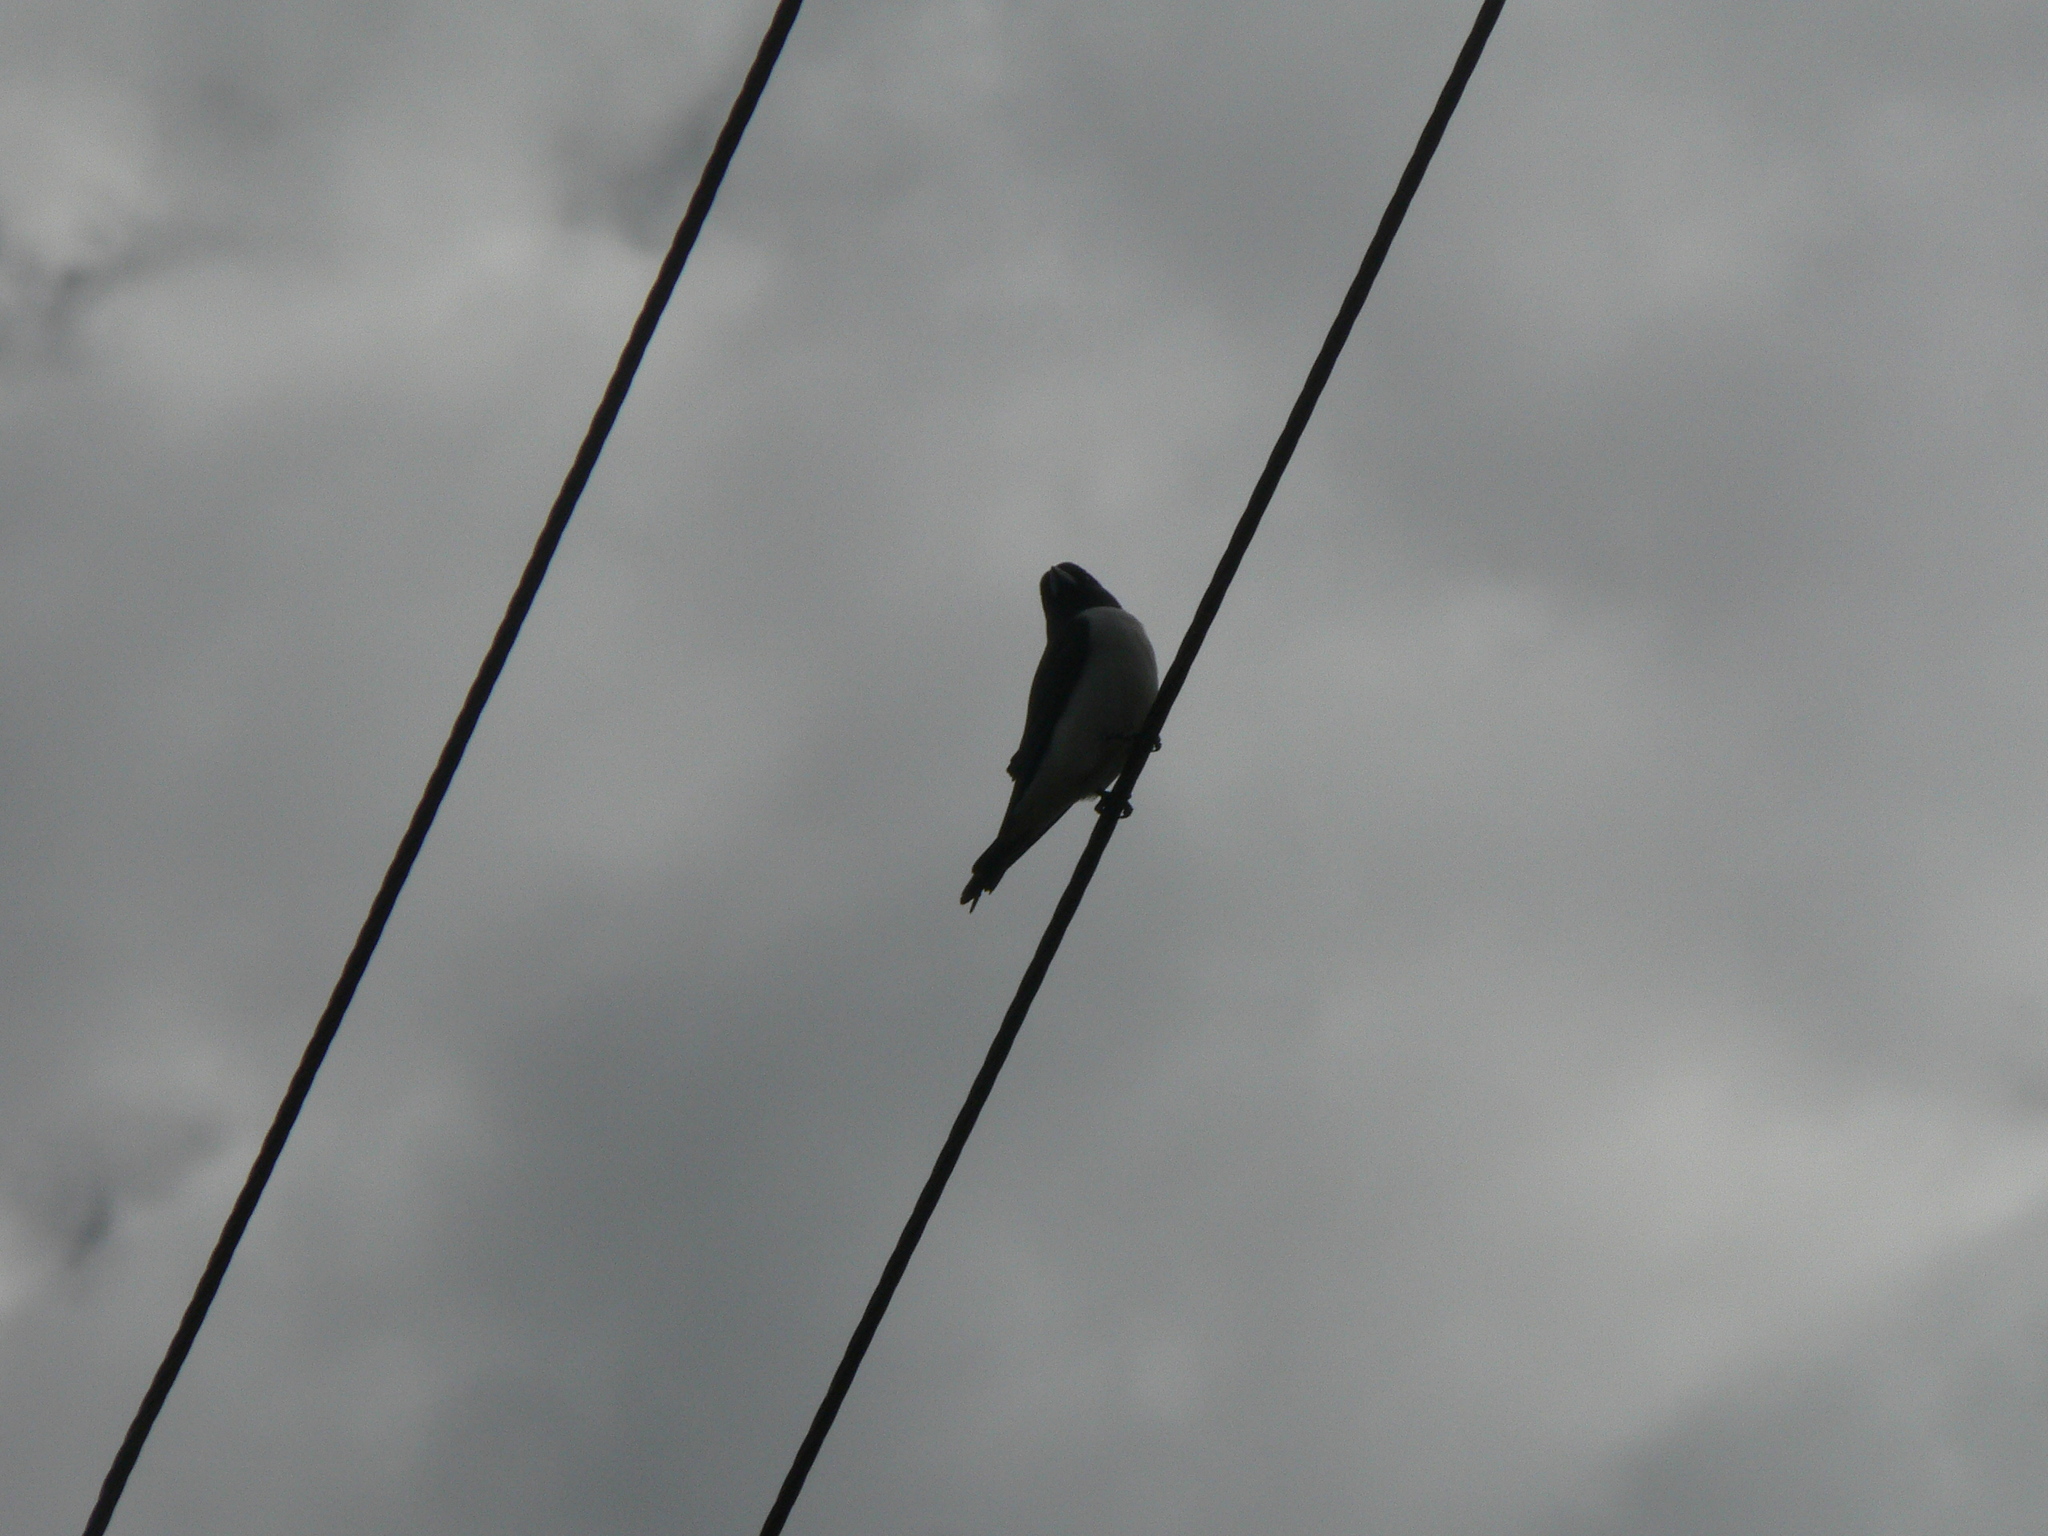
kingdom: Animalia
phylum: Chordata
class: Aves
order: Passeriformes
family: Artamidae
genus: Artamus
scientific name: Artamus leucoryn
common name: White-breasted woodswallow
